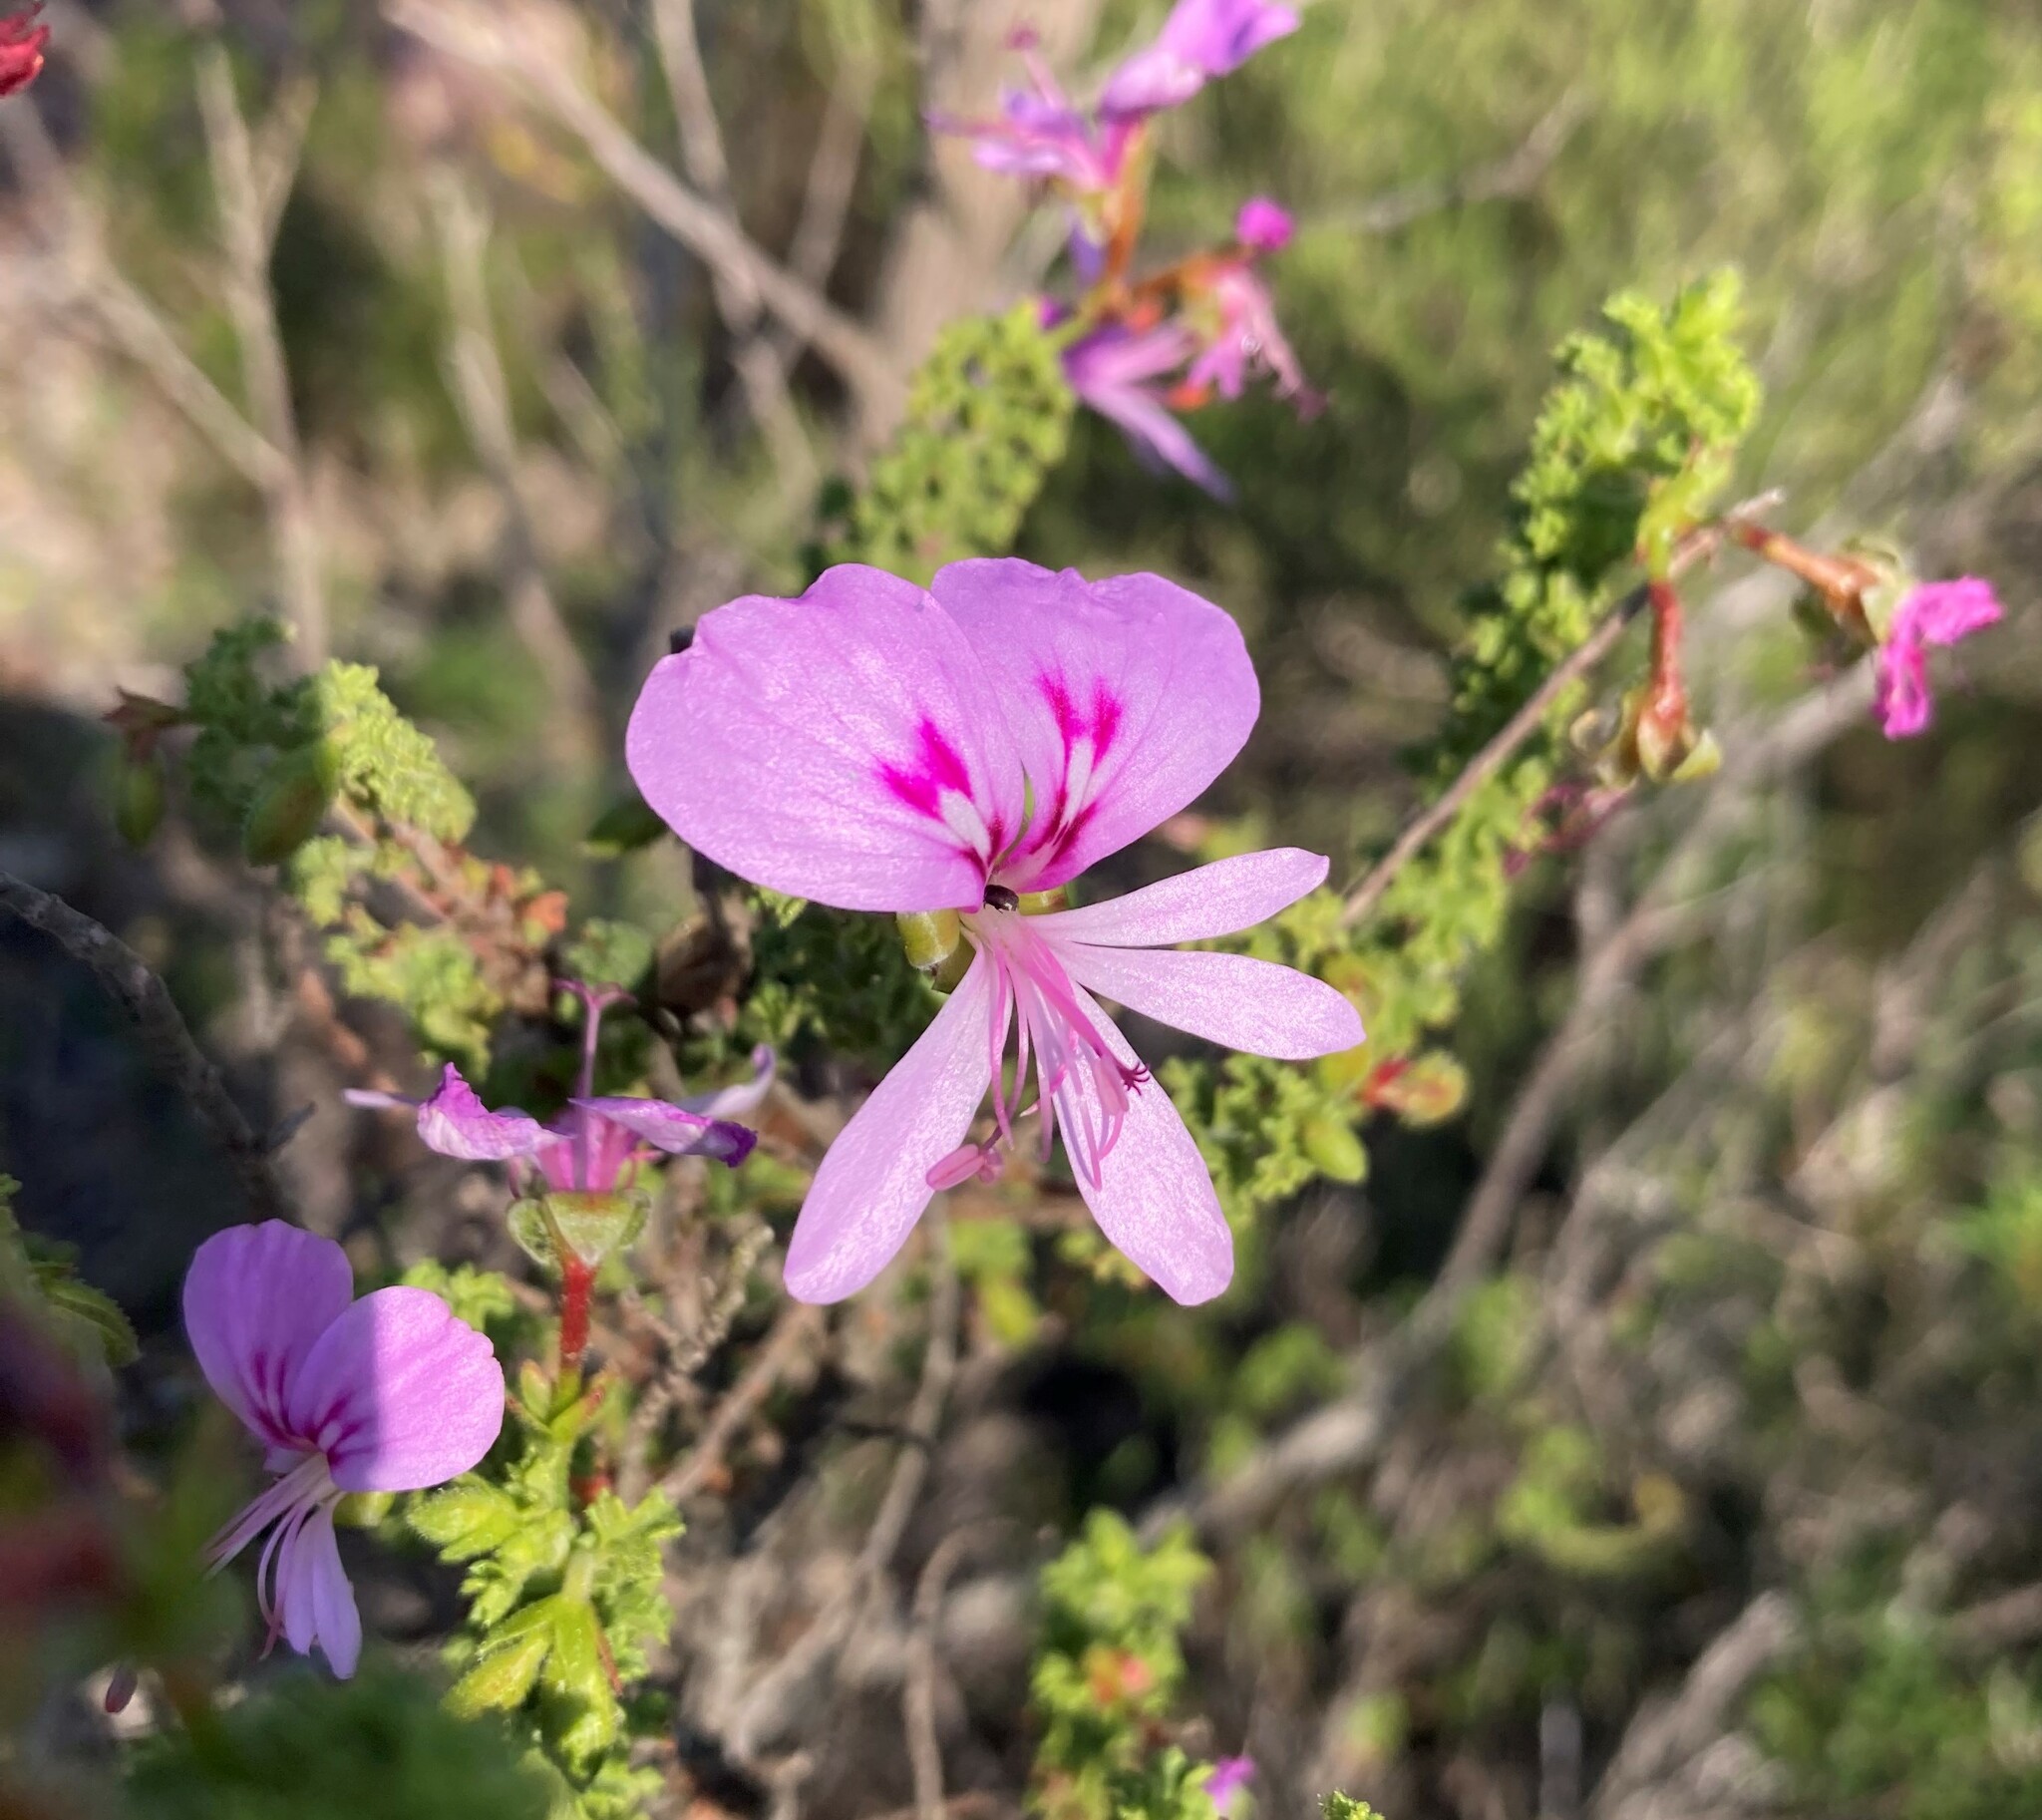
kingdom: Plantae
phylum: Tracheophyta
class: Magnoliopsida
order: Geraniales
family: Geraniaceae
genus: Pelargonium
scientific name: Pelargonium crispum
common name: Crisped-leaf pelargonium
